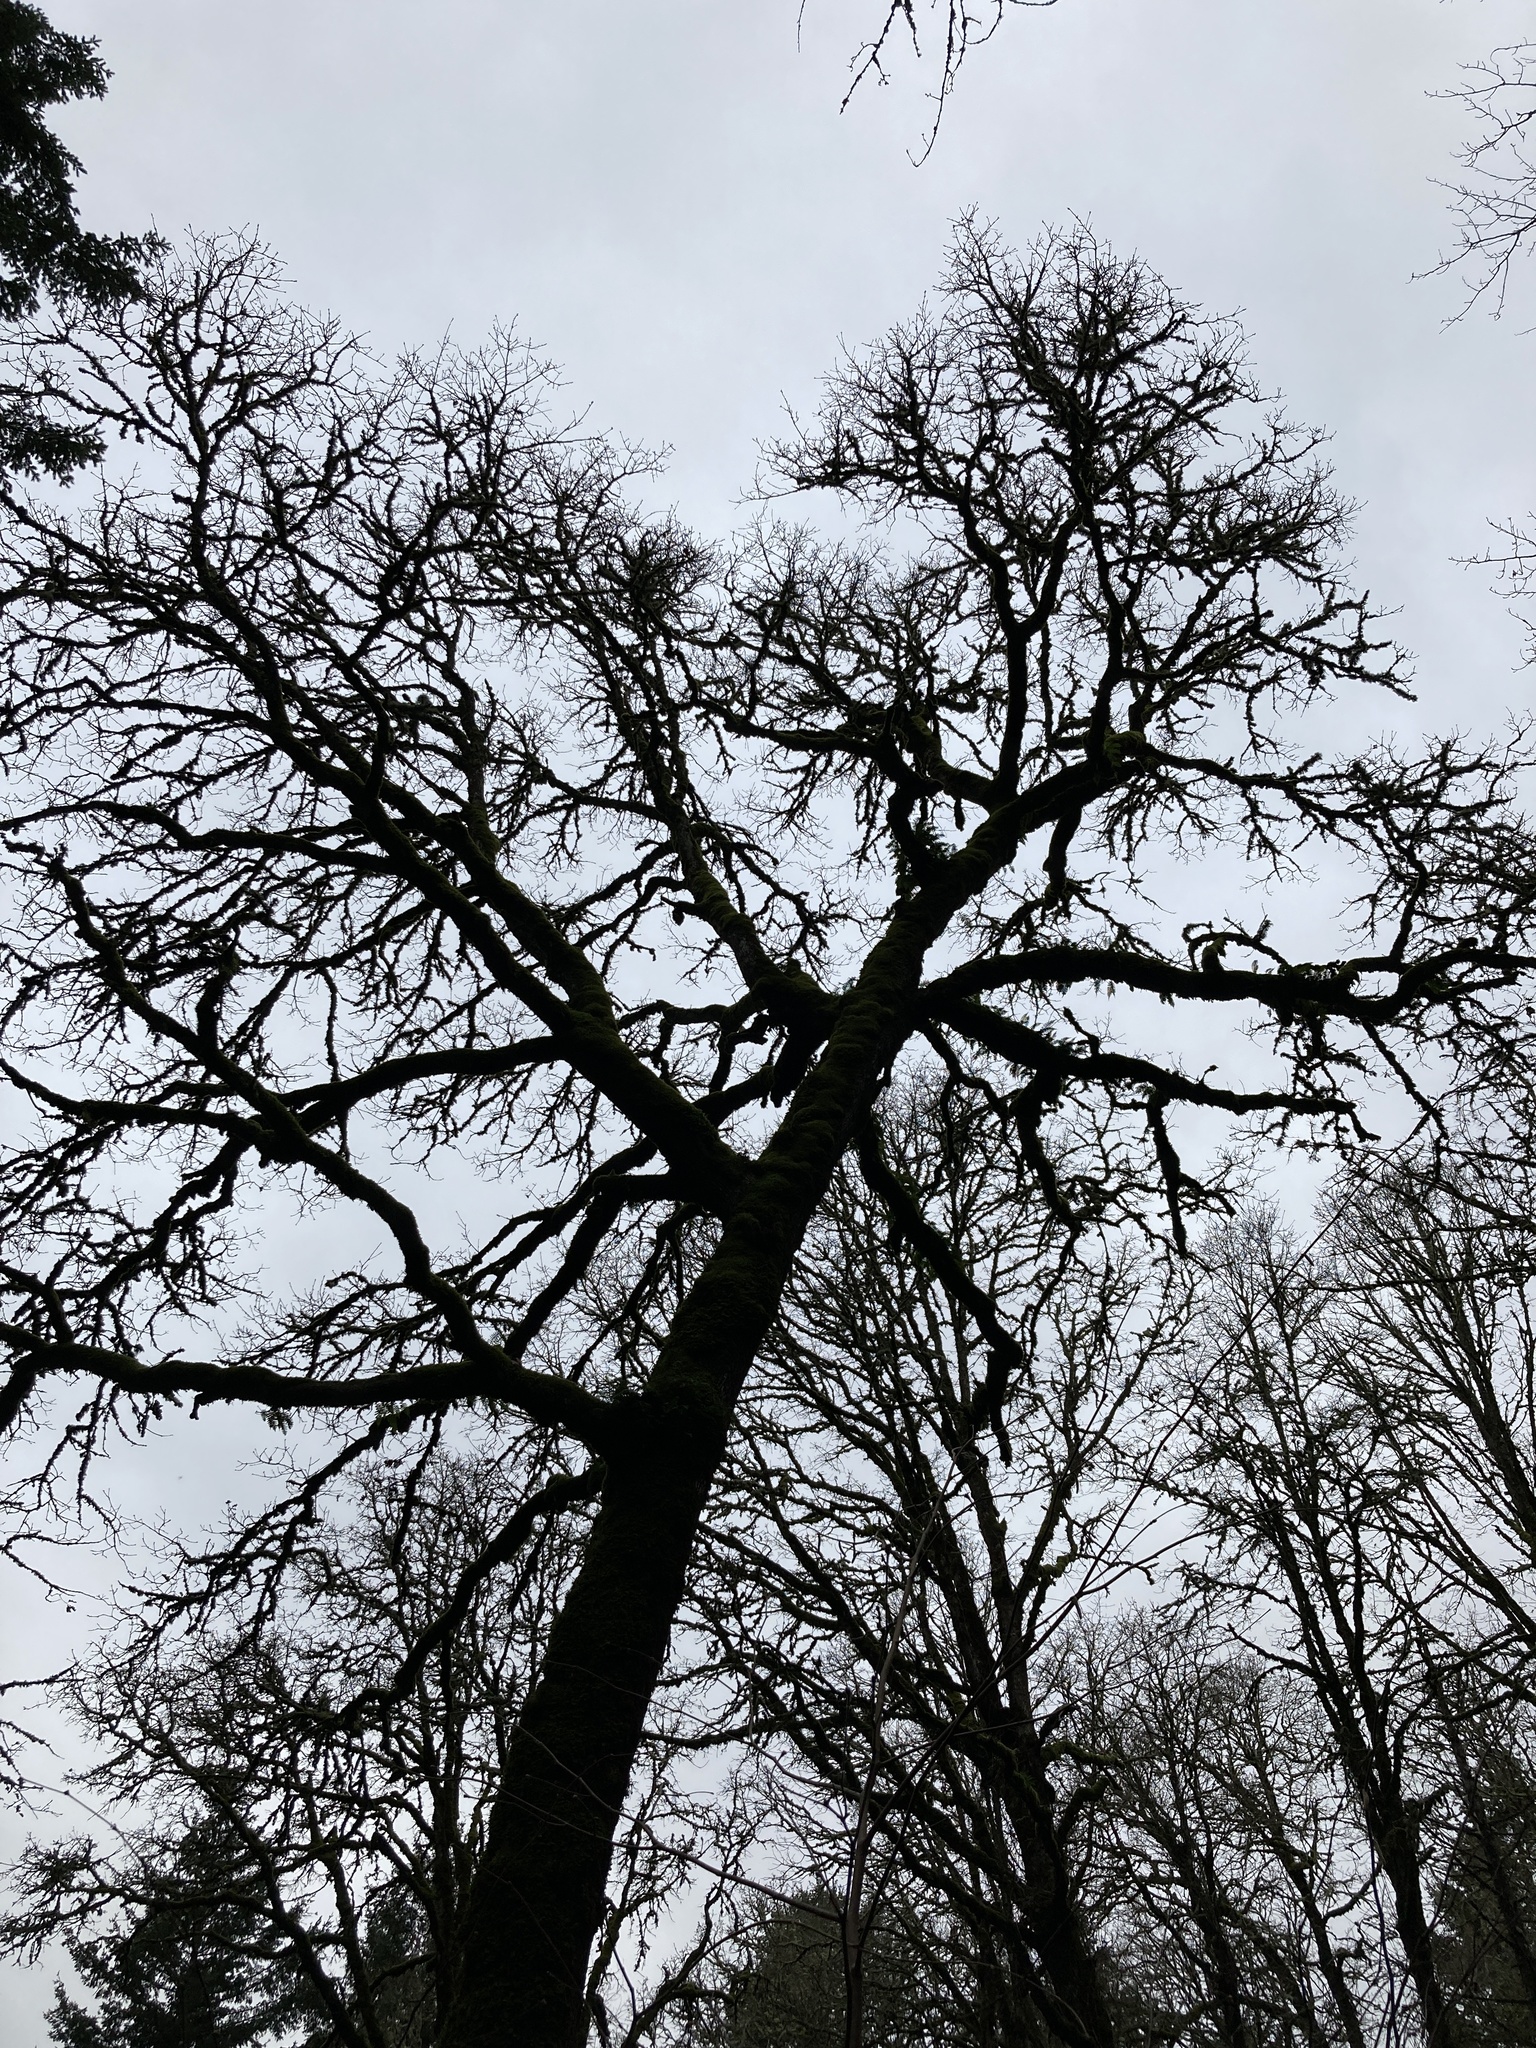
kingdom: Plantae
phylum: Tracheophyta
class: Magnoliopsida
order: Fagales
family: Fagaceae
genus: Quercus
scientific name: Quercus garryana
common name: Garry oak
